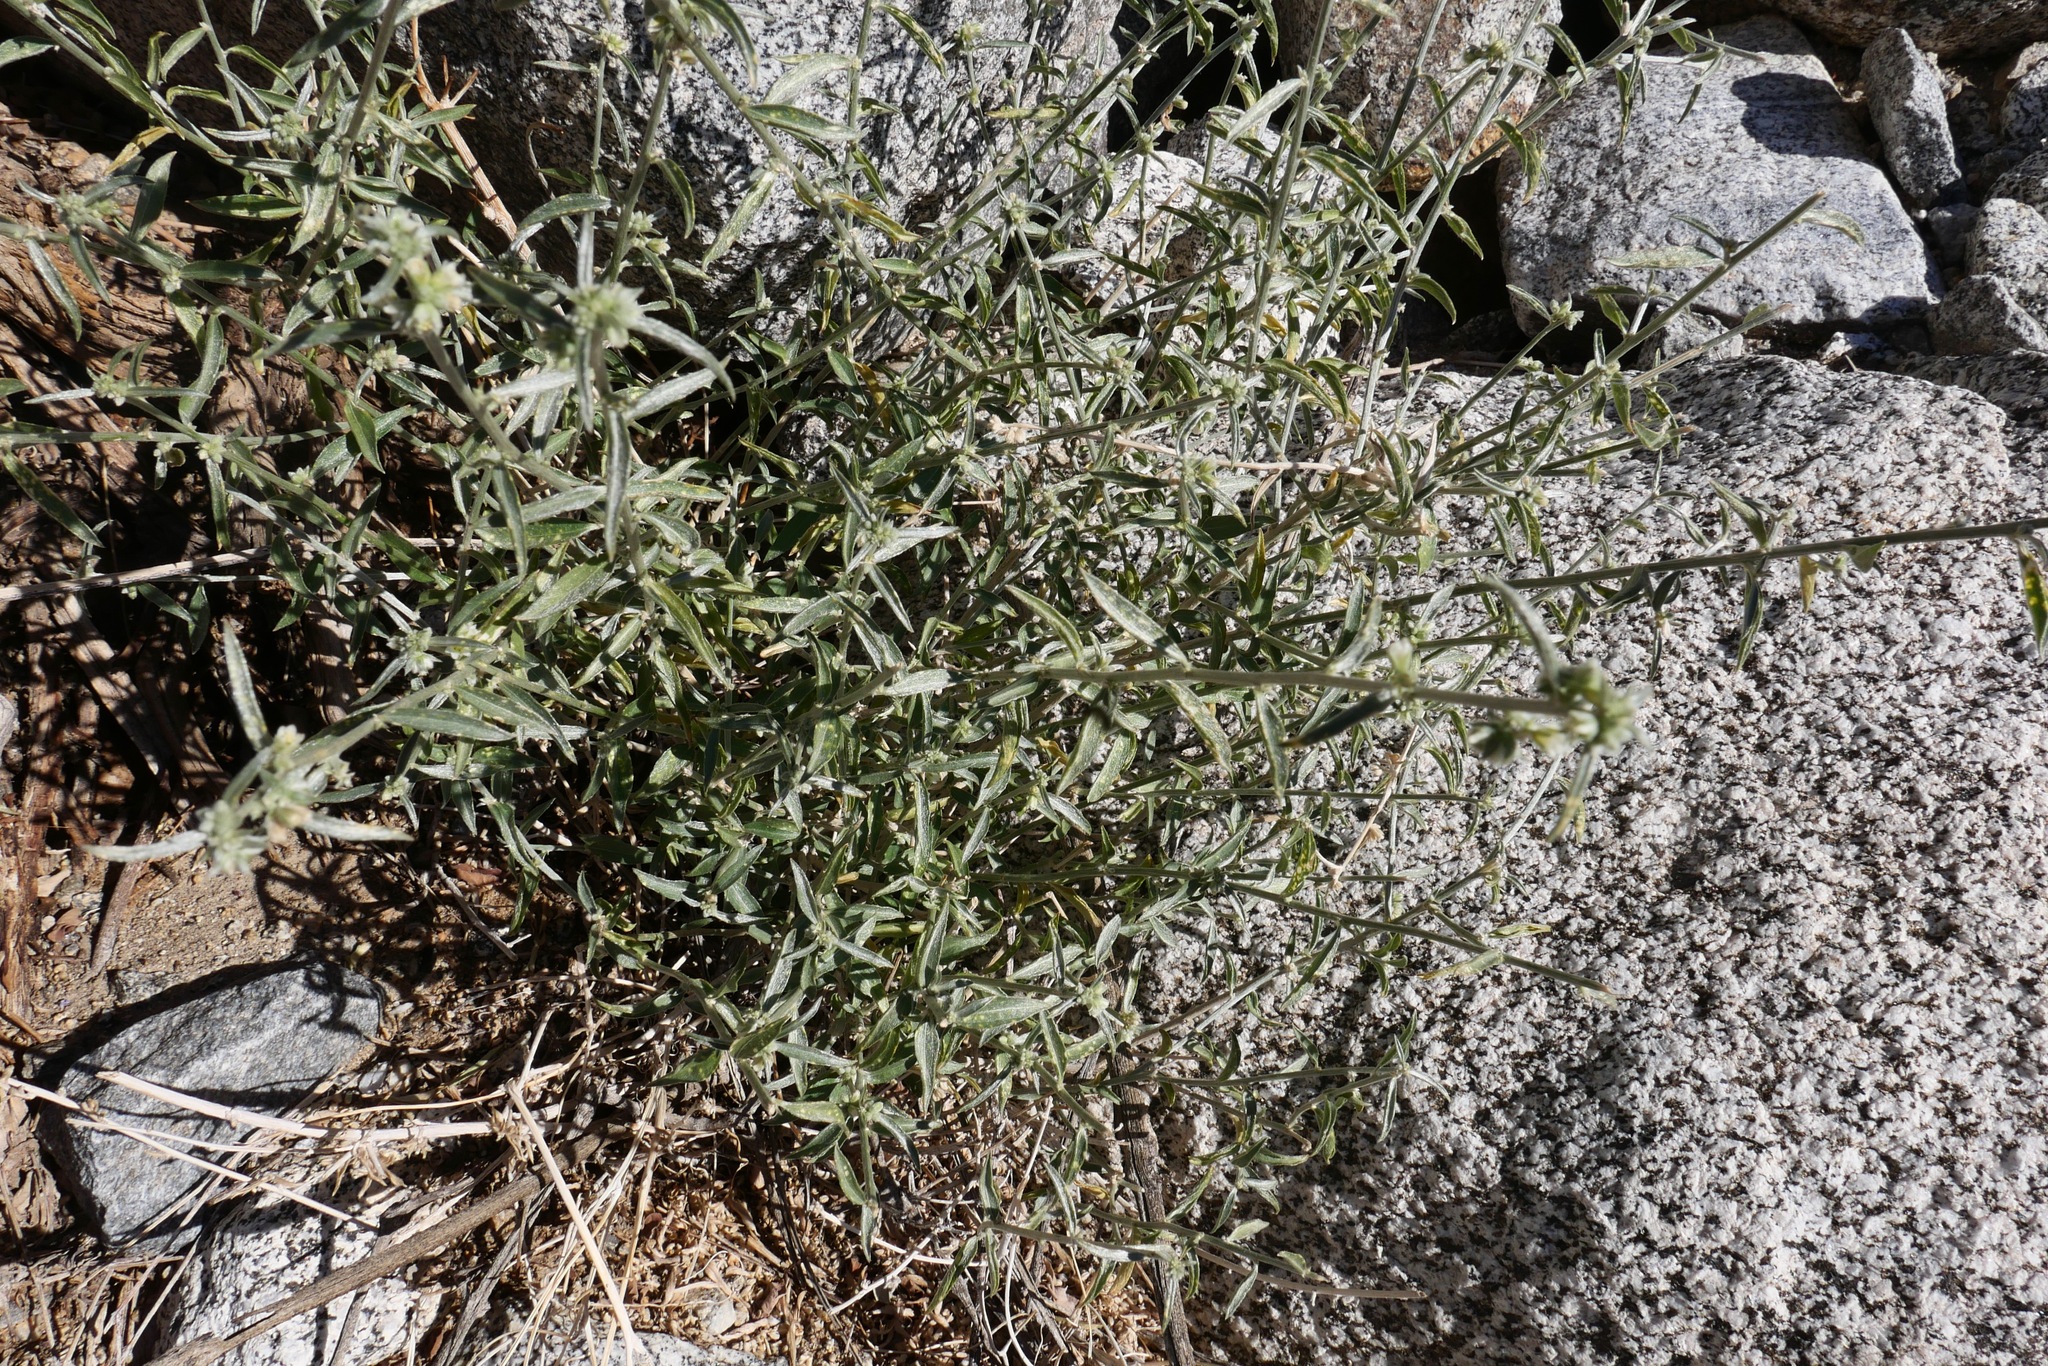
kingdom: Plantae
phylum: Tracheophyta
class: Magnoliopsida
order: Malpighiales
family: Euphorbiaceae
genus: Ditaxis
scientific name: Ditaxis lanceolata
